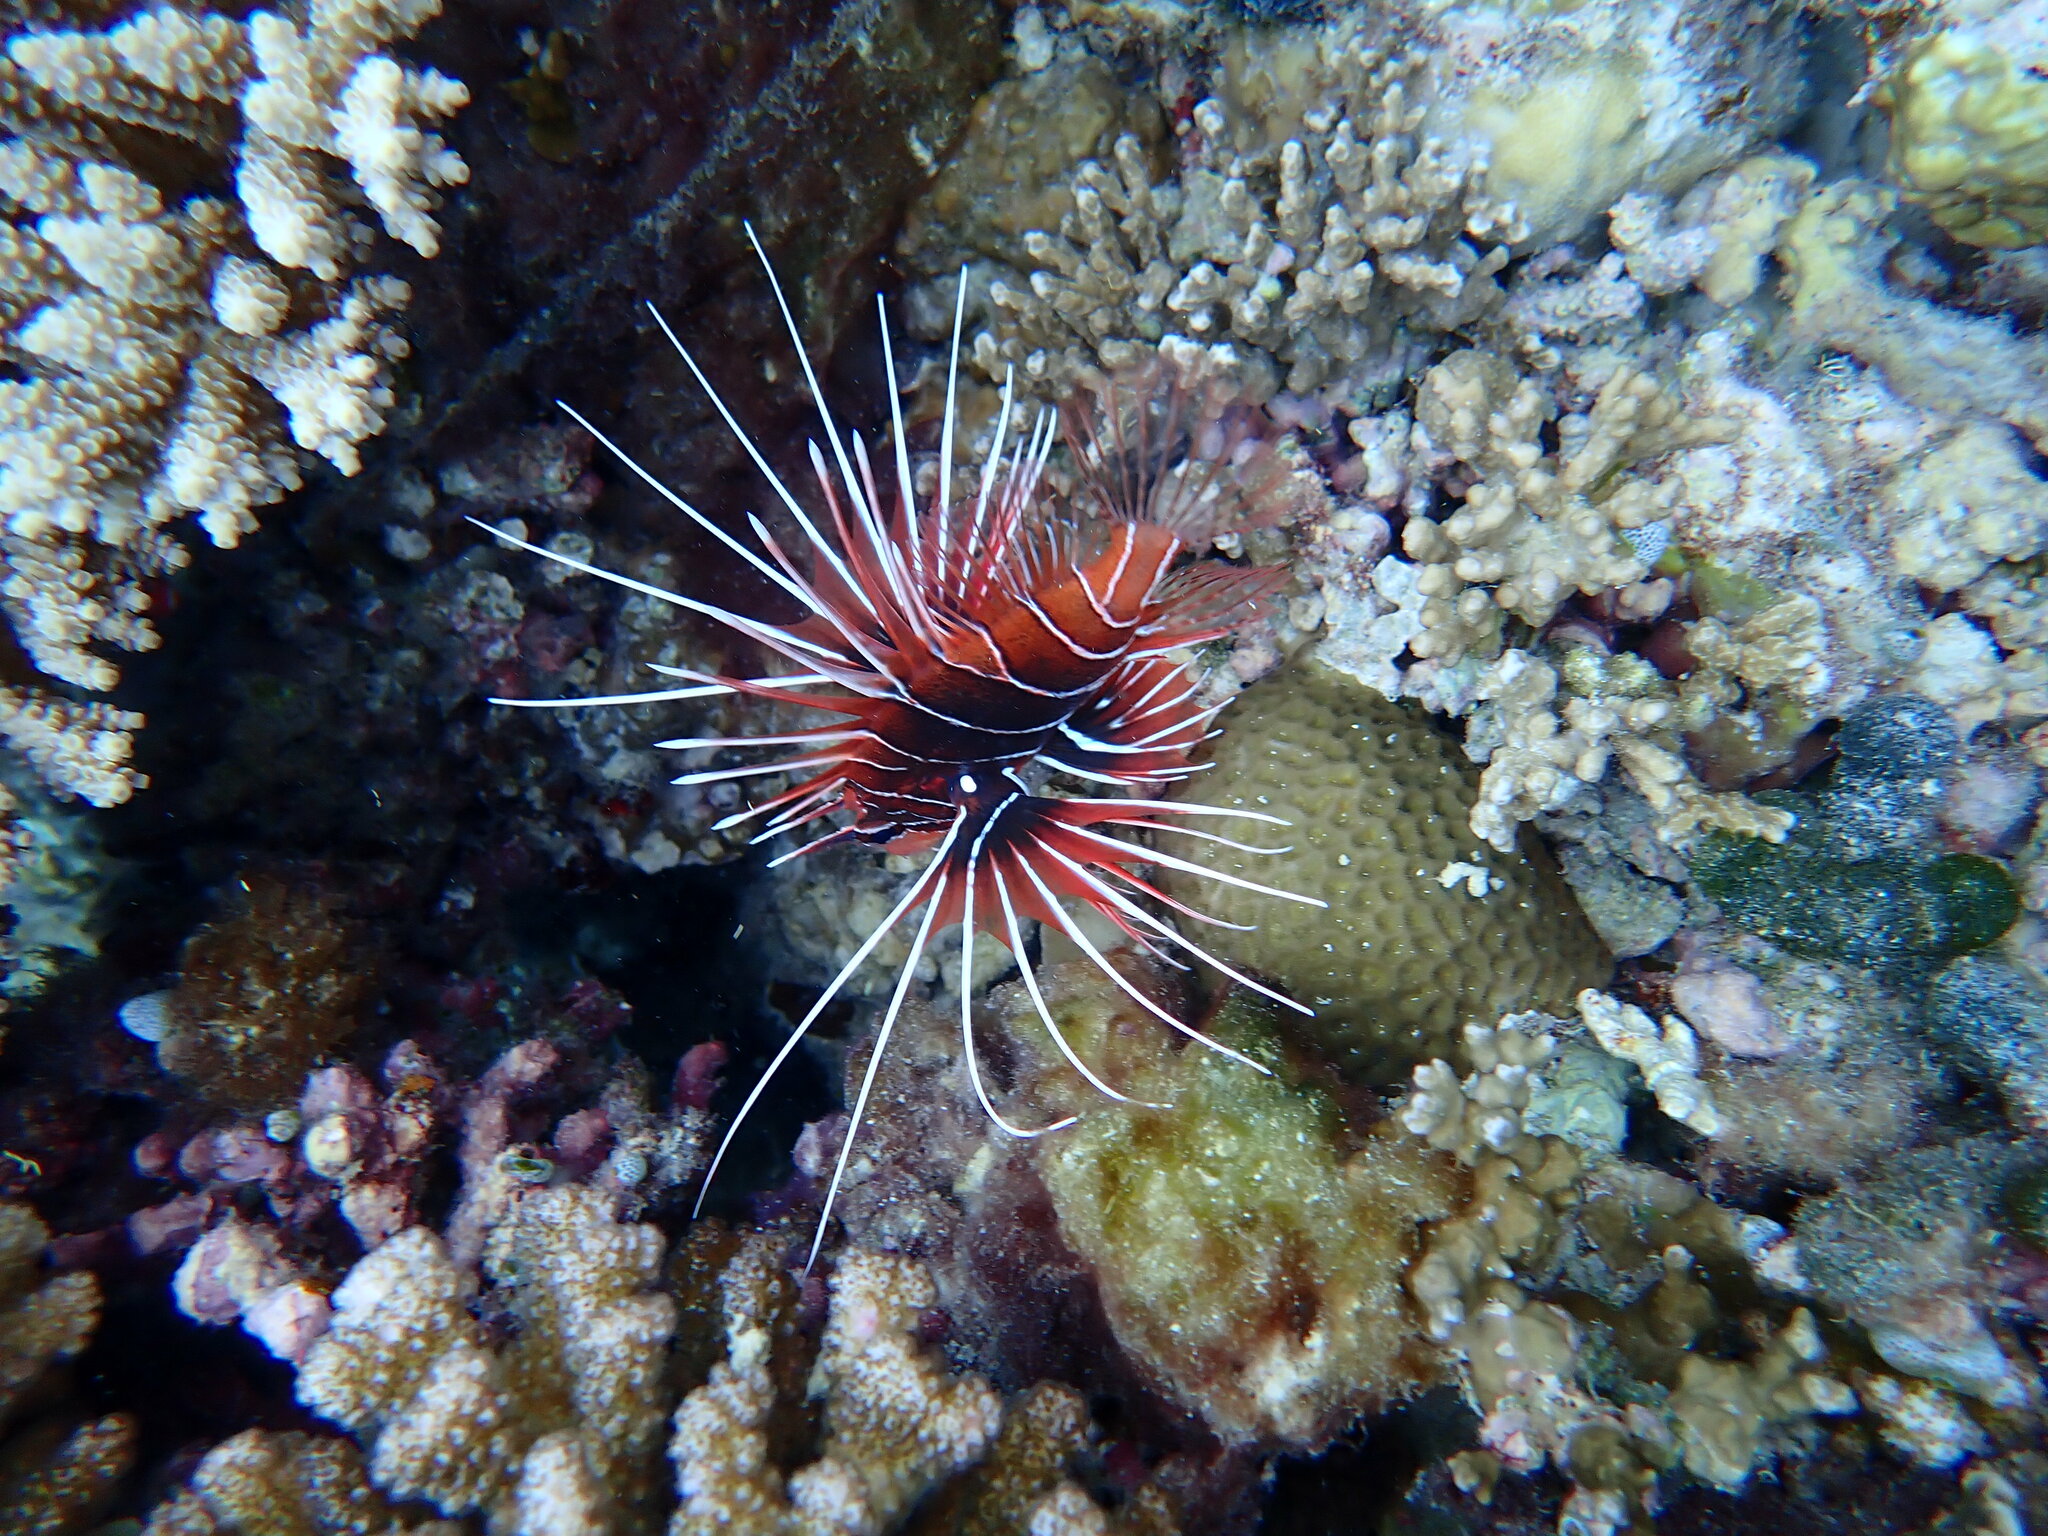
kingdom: Animalia
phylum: Chordata
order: Scorpaeniformes
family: Scorpaenidae
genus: Pterois
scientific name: Pterois radiata
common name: Radial firefish
